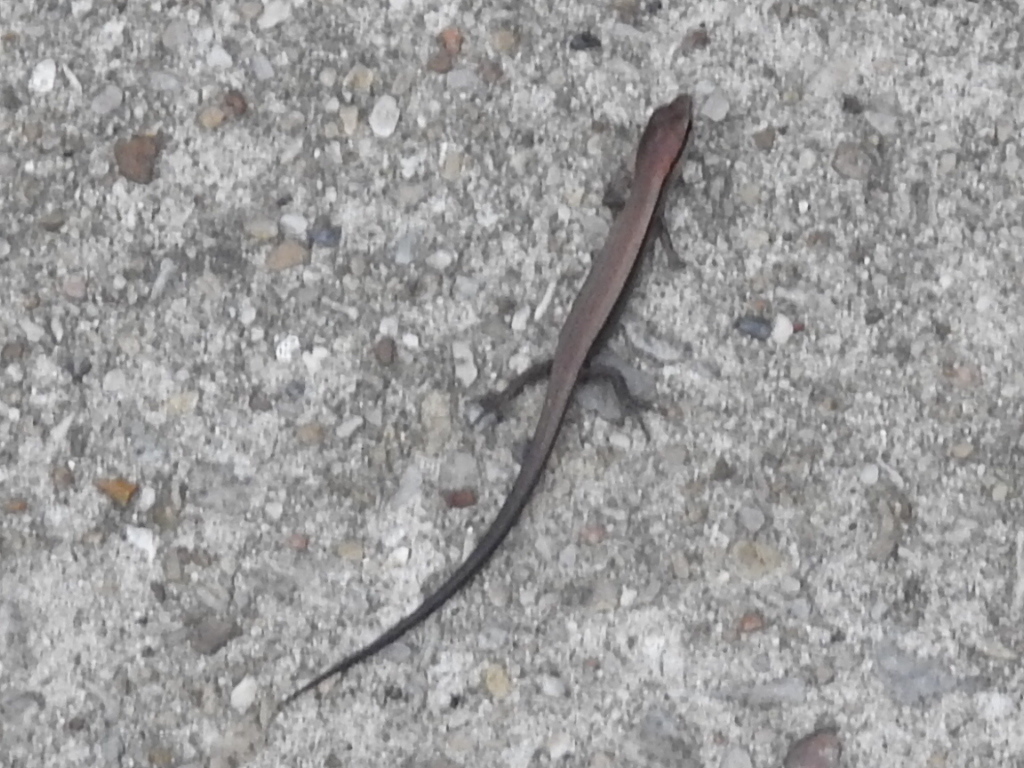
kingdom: Animalia
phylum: Chordata
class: Squamata
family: Scincidae
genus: Scincella
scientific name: Scincella lateralis
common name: Ground skink
